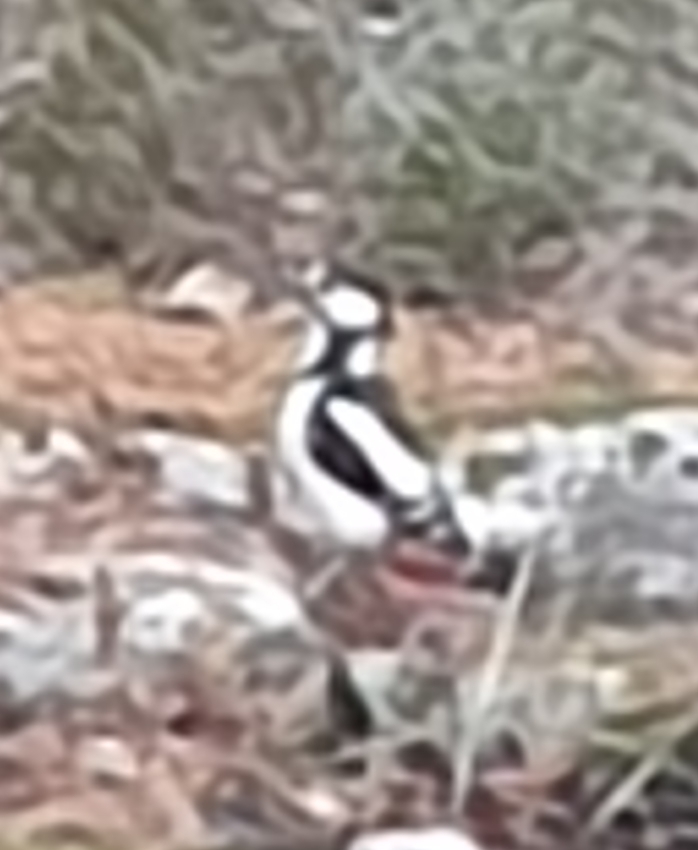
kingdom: Animalia
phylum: Chordata
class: Aves
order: Piciformes
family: Picidae
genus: Dendrocopos
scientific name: Dendrocopos major
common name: Great spotted woodpecker
